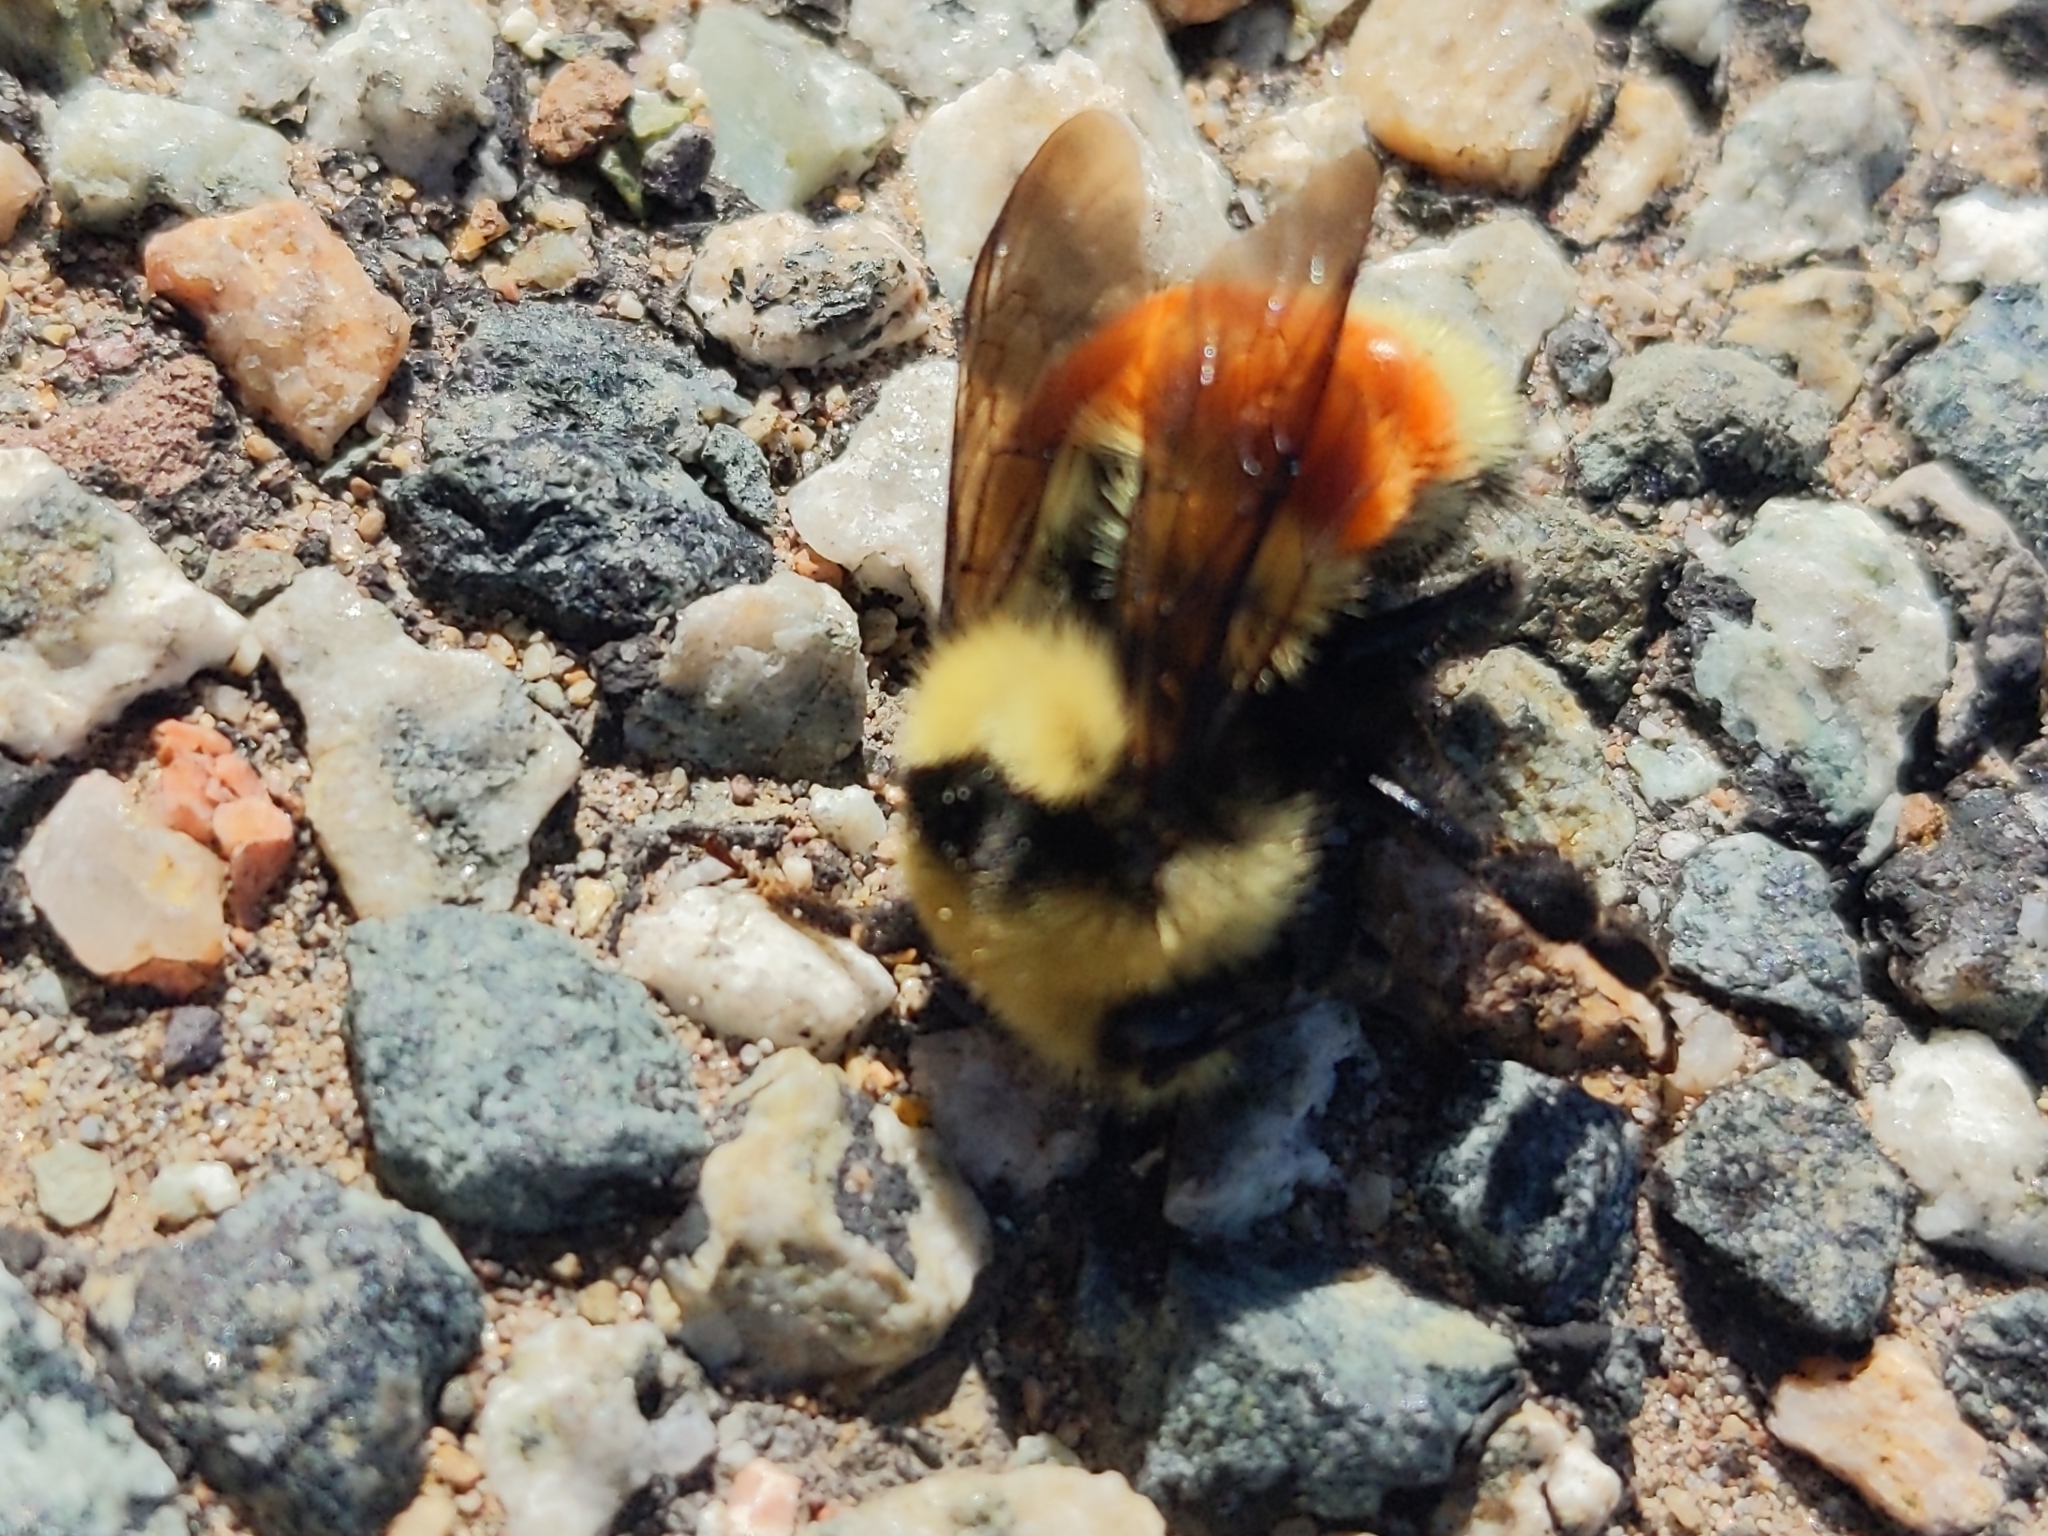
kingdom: Animalia
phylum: Arthropoda
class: Insecta
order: Hymenoptera
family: Apidae
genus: Bombus
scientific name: Bombus huntii
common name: Hunt bumble bee
